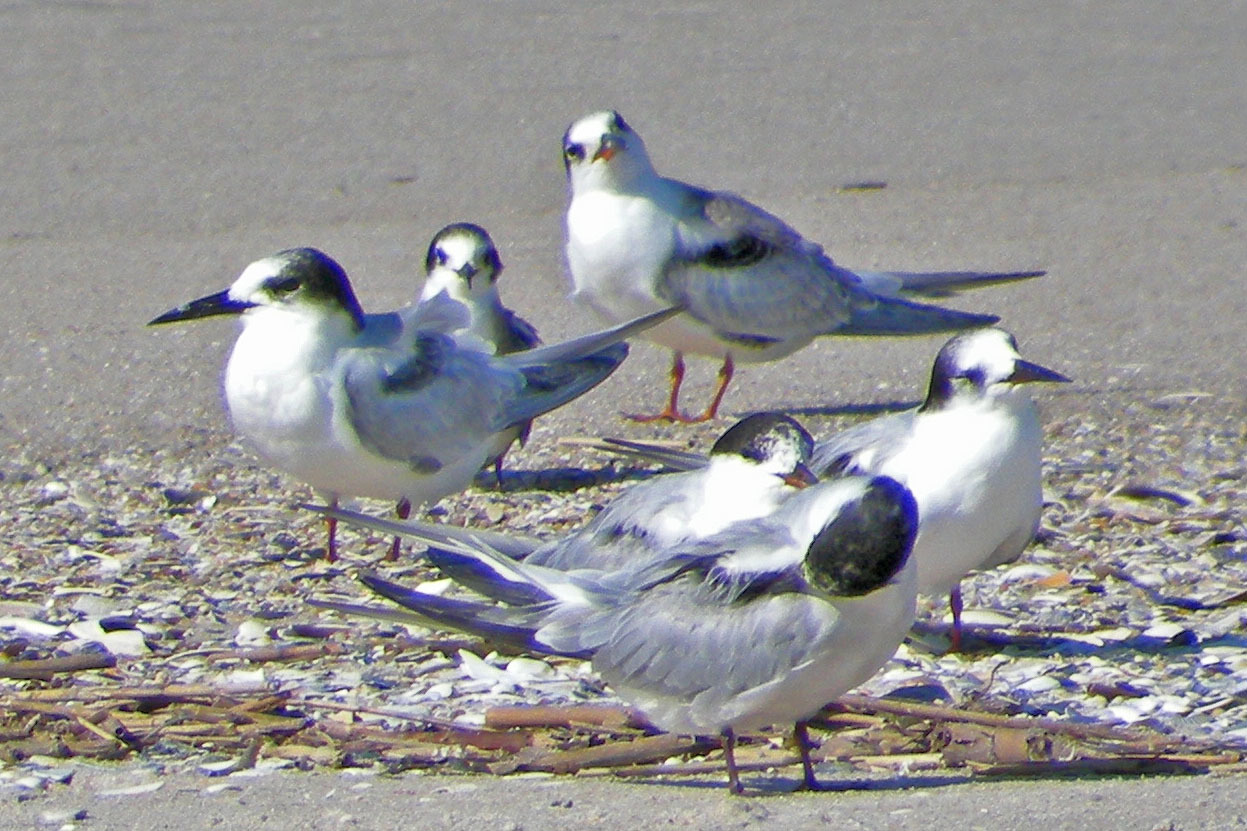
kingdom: Animalia
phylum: Chordata
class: Aves
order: Charadriiformes
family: Laridae
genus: Sterna
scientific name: Sterna hirundo
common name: Common tern
